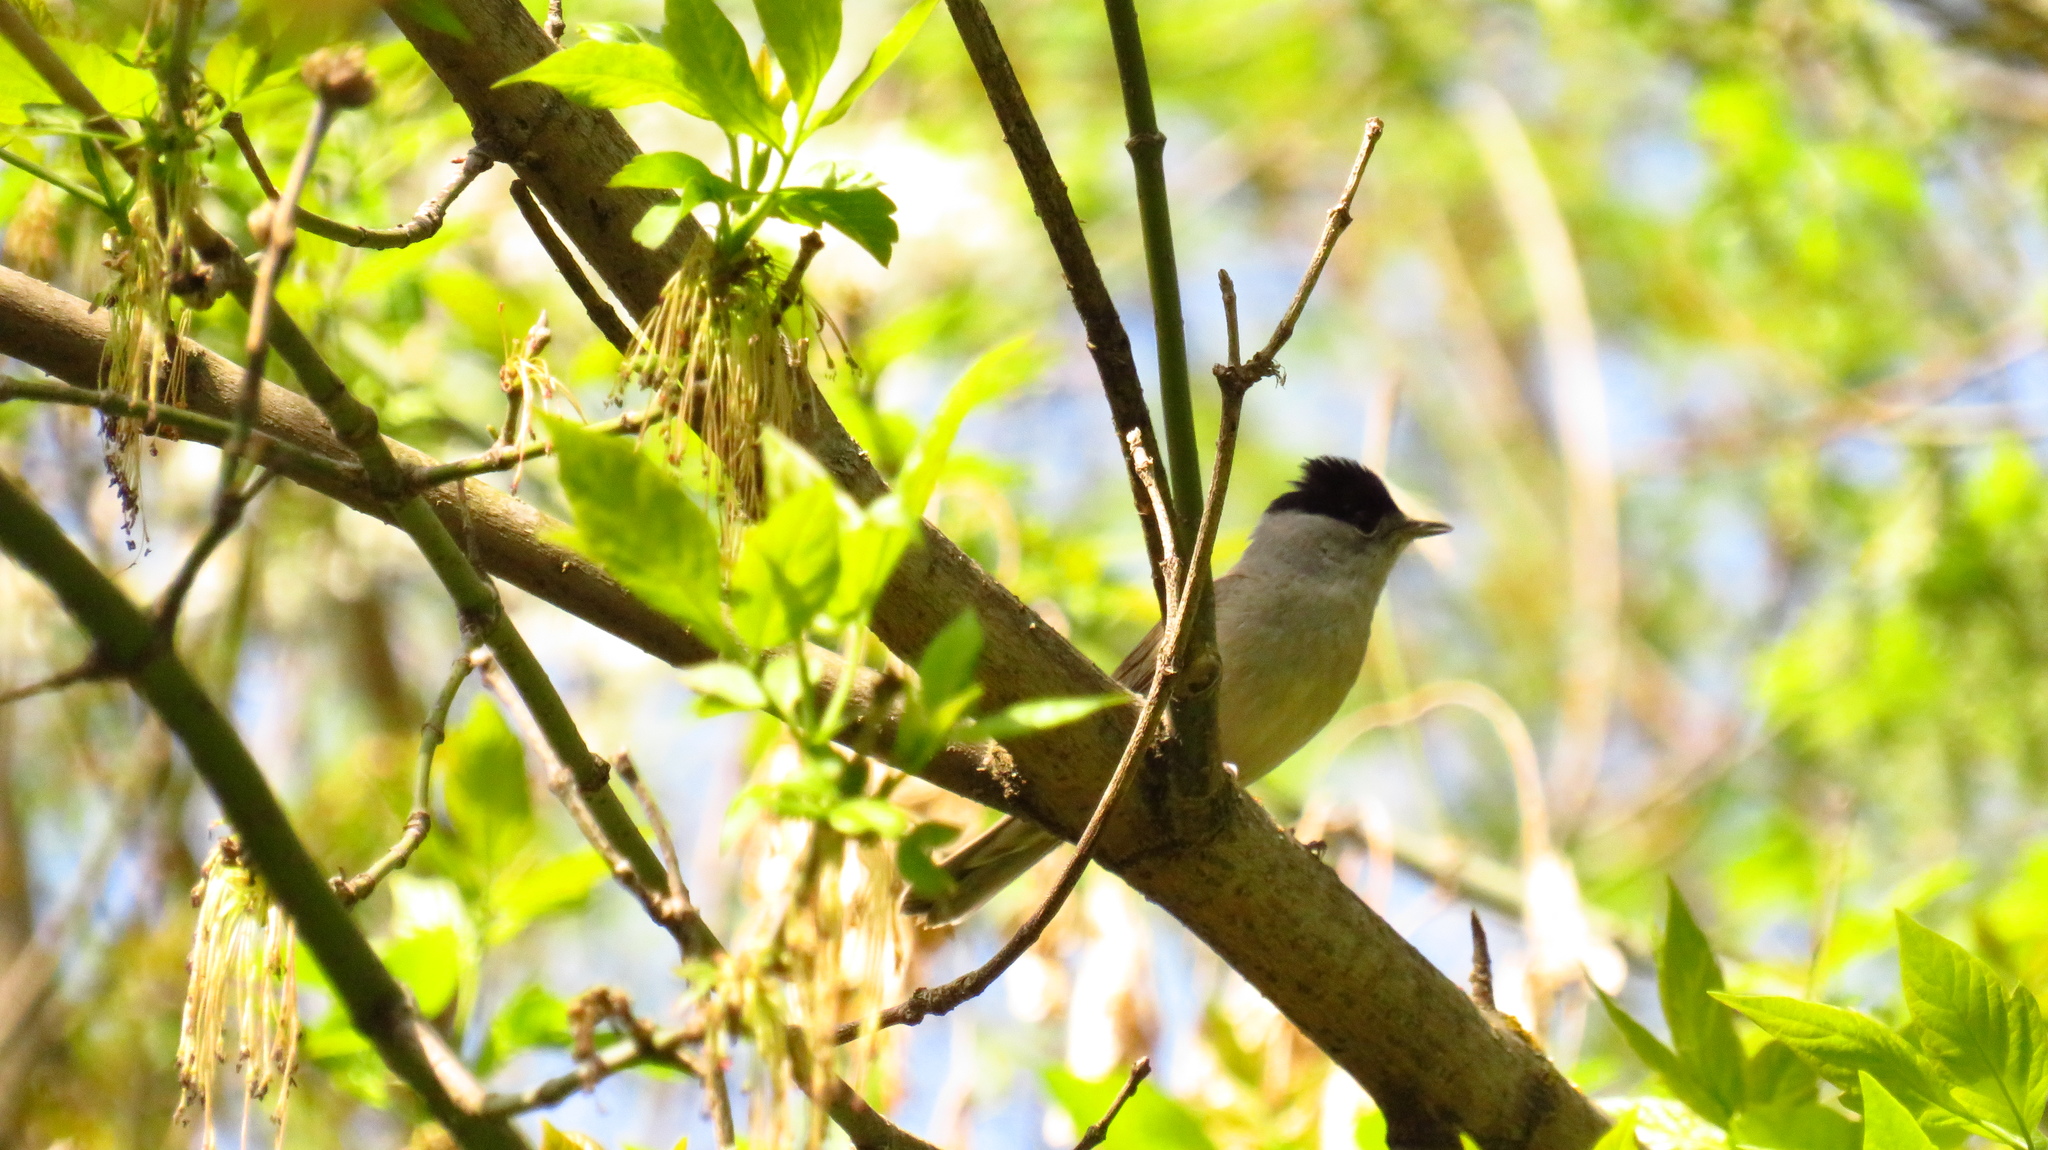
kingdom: Animalia
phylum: Chordata
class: Aves
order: Passeriformes
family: Sylviidae
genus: Sylvia
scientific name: Sylvia atricapilla
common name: Eurasian blackcap
